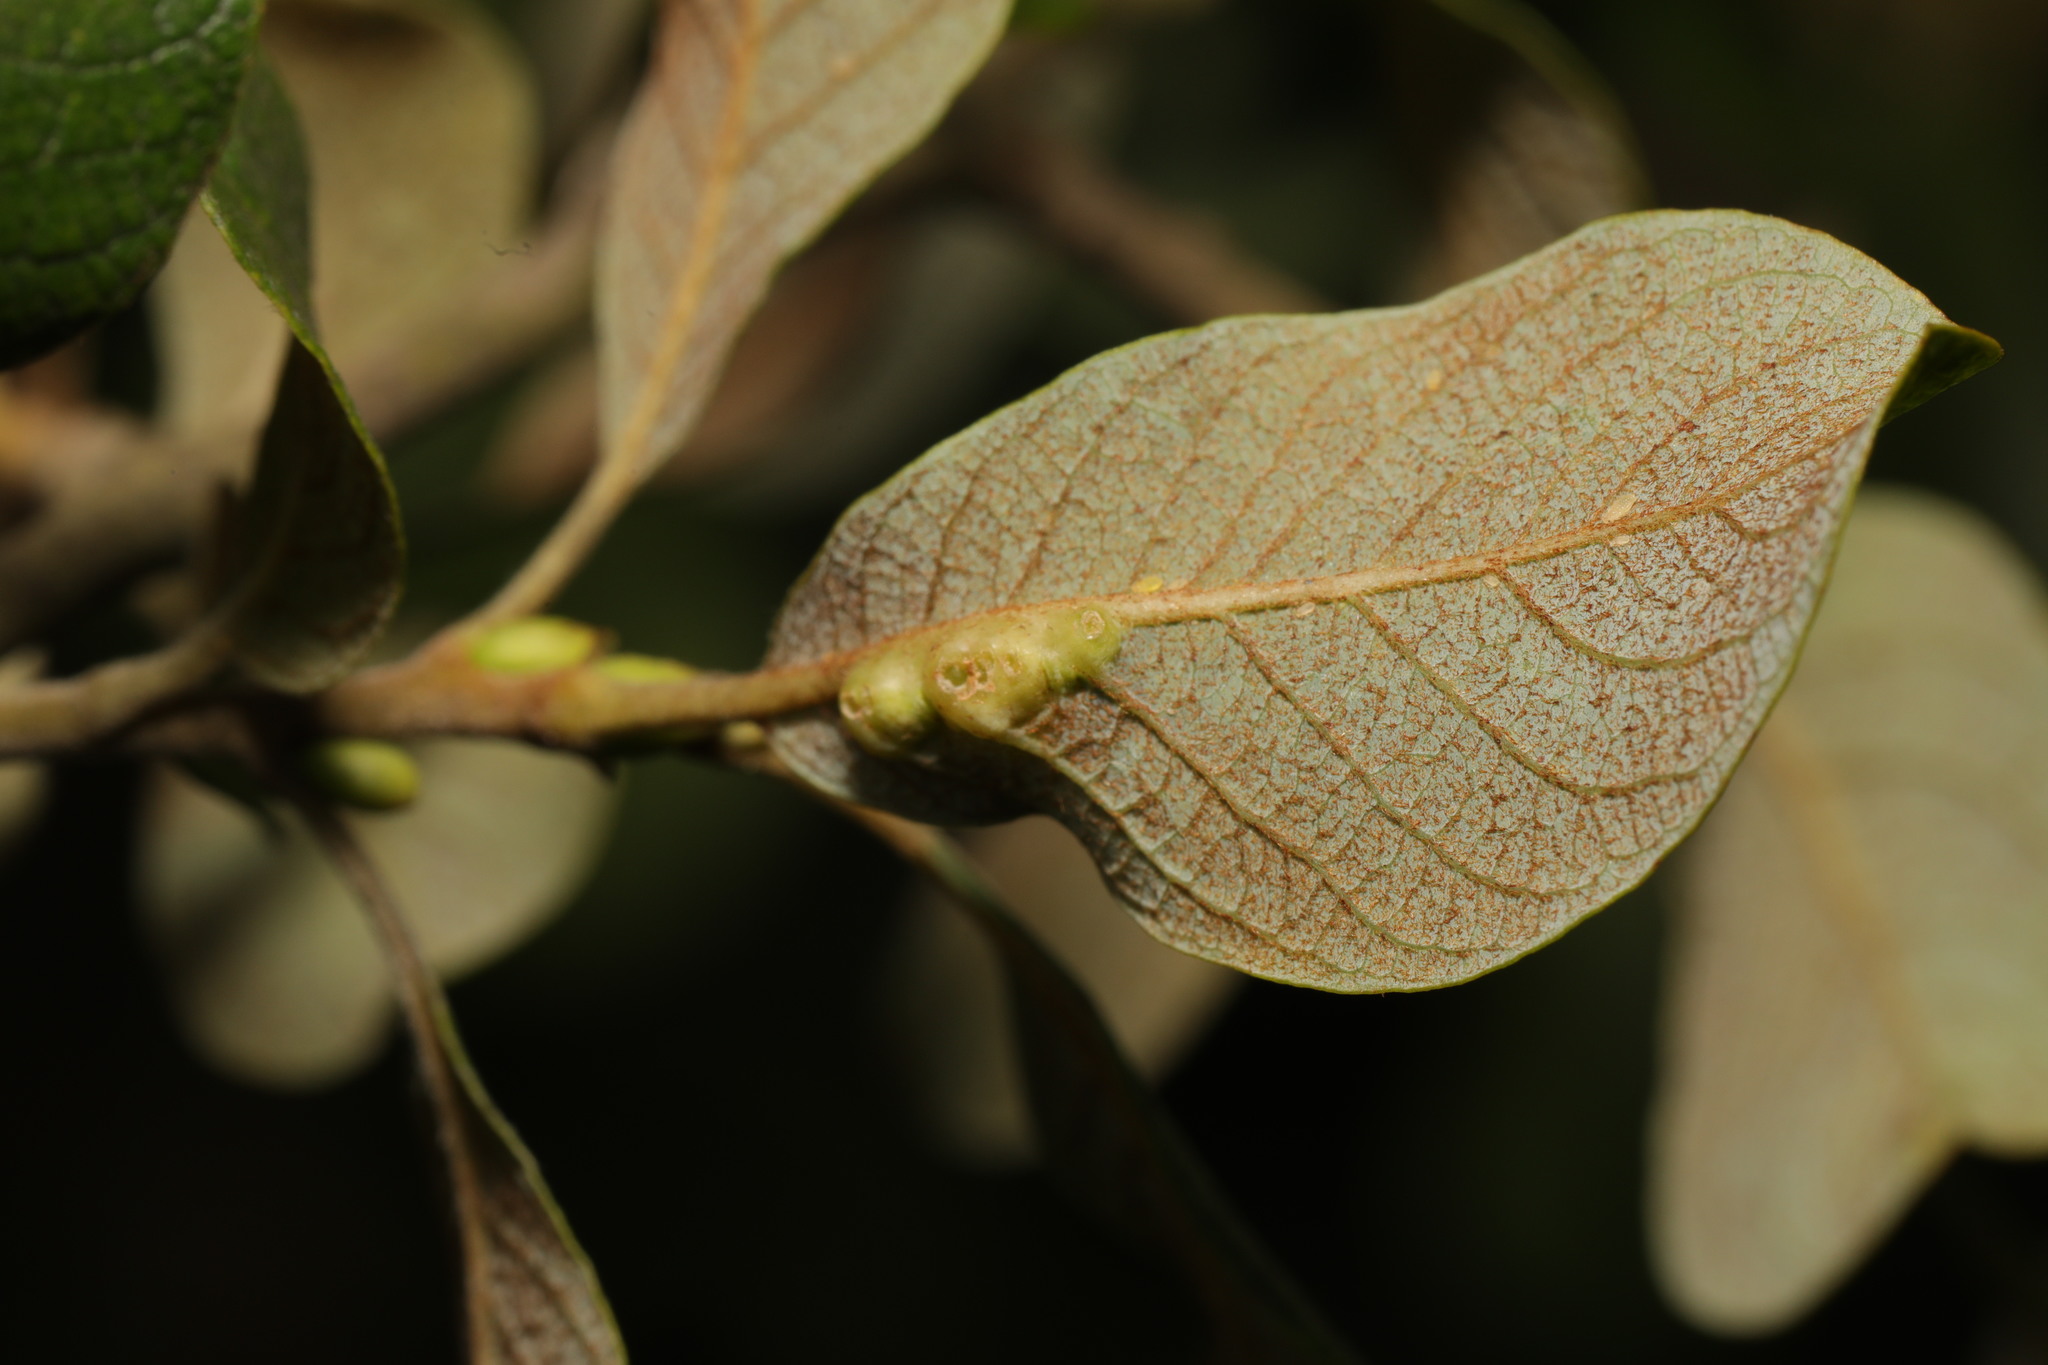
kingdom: Animalia
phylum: Arthropoda
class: Insecta
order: Diptera
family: Cecidomyiidae
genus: Iteomyia
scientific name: Iteomyia major
